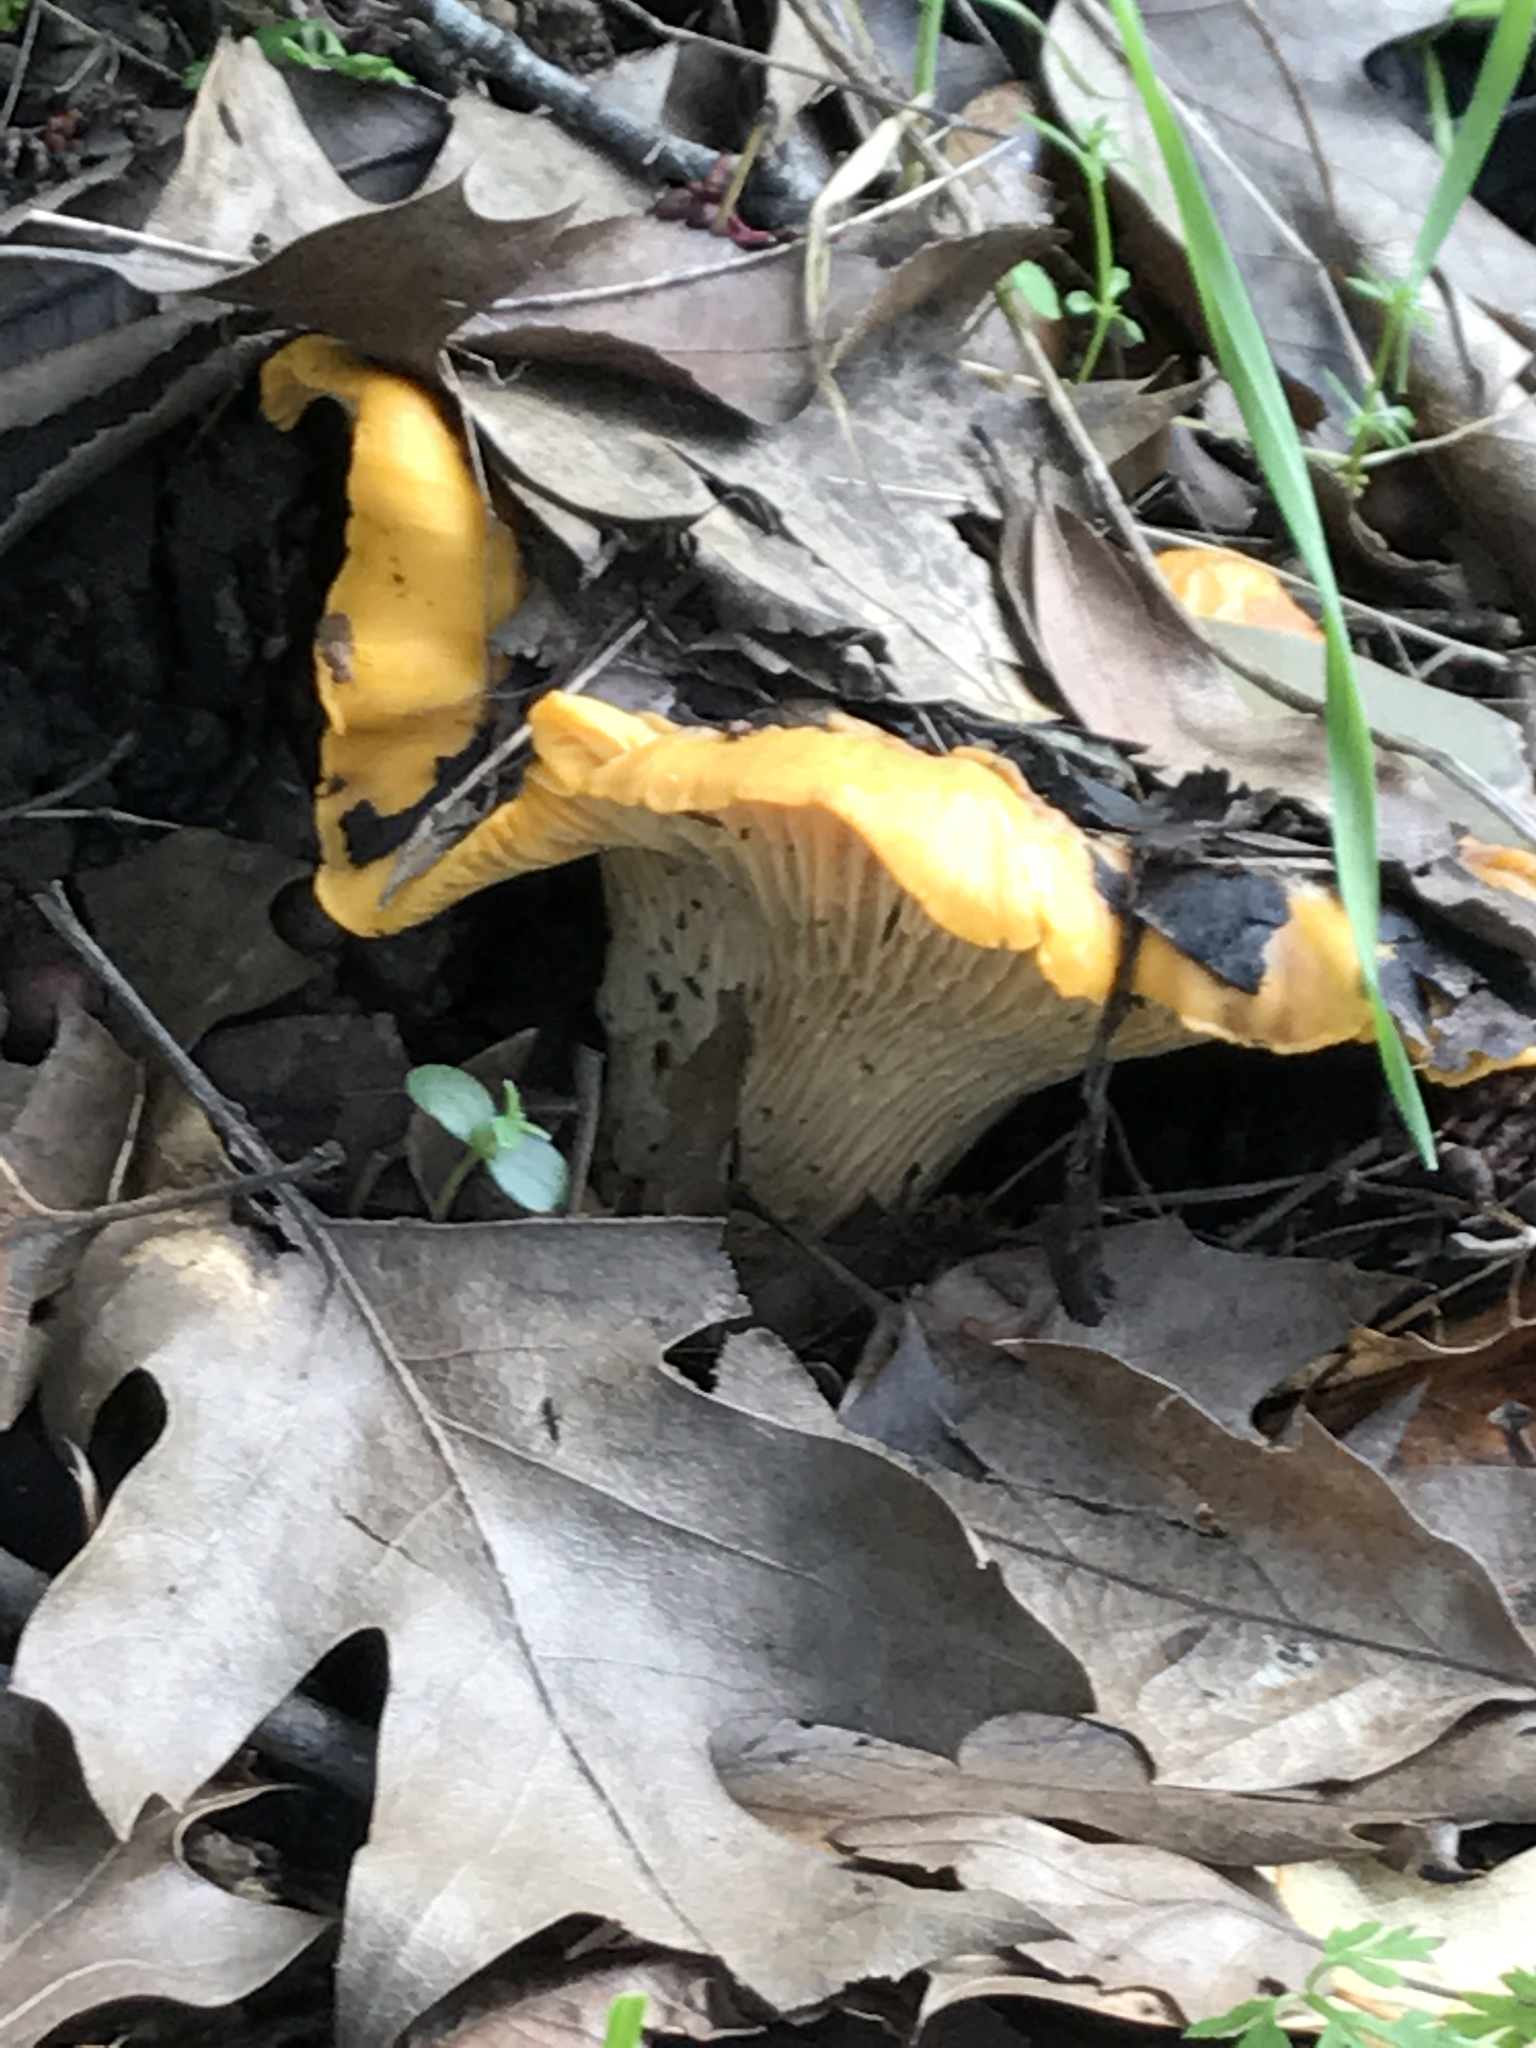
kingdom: Fungi
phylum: Basidiomycota
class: Agaricomycetes
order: Cantharellales
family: Hydnaceae
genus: Cantharellus
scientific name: Cantharellus californicus
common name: California golden chanterelle
